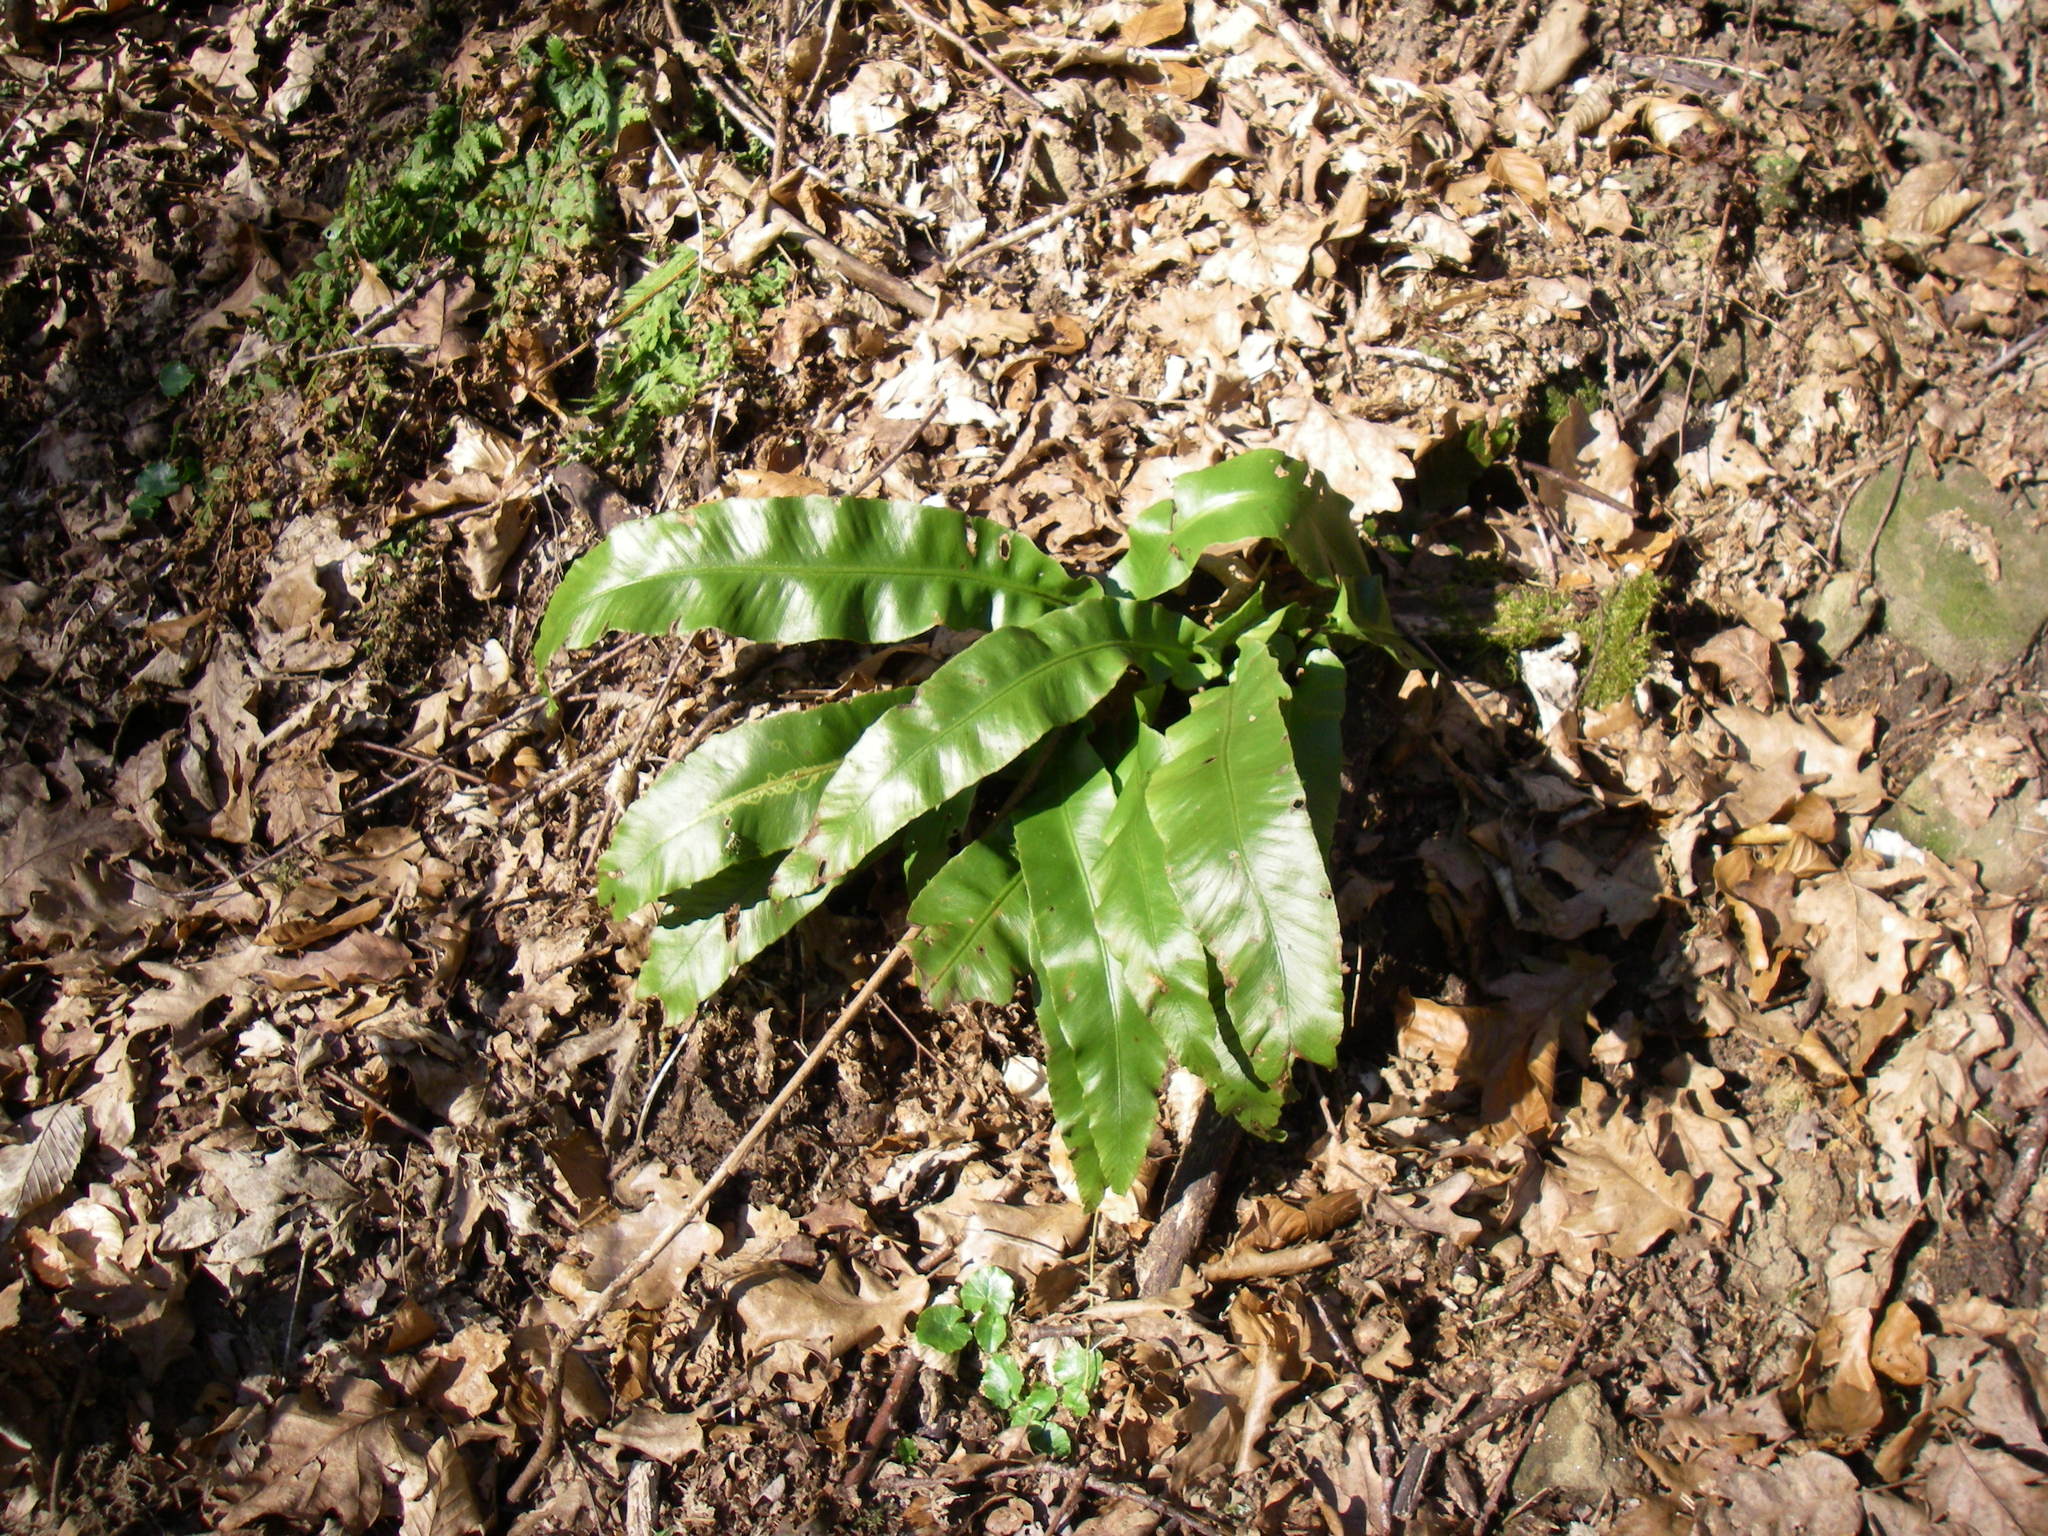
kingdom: Plantae
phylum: Tracheophyta
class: Polypodiopsida
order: Polypodiales
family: Aspleniaceae
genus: Asplenium
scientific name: Asplenium scolopendrium
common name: Hart's-tongue fern
